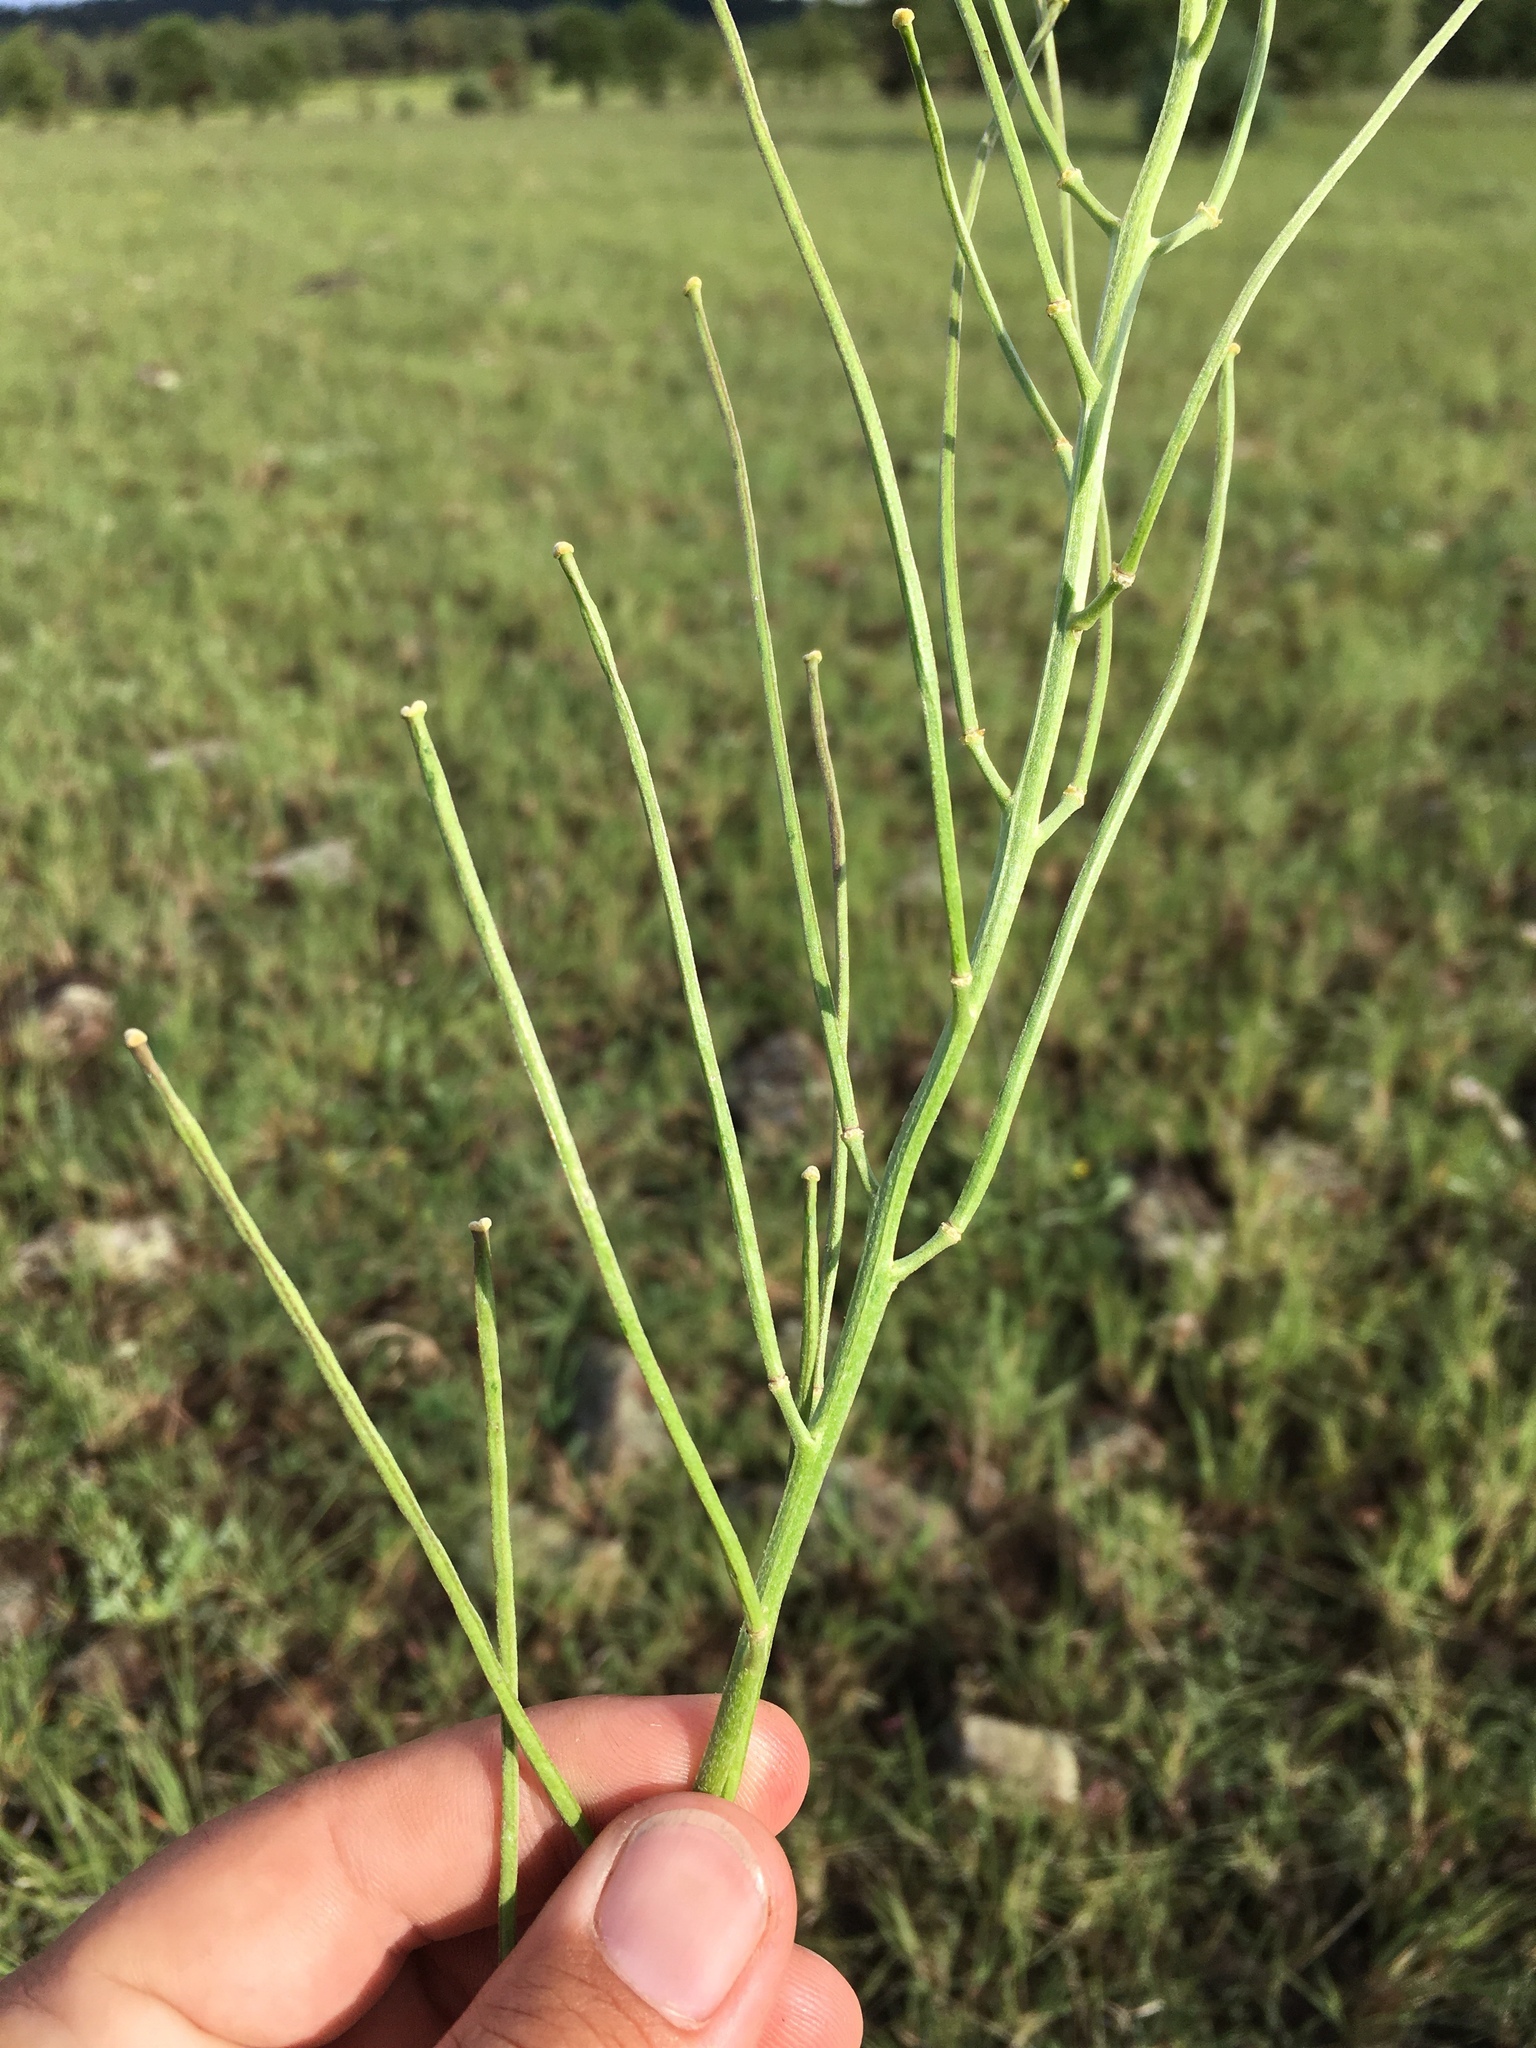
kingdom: Plantae
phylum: Tracheophyta
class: Magnoliopsida
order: Brassicales
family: Brassicaceae
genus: Erysimum
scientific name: Erysimum capitatum
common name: Western wallflower
